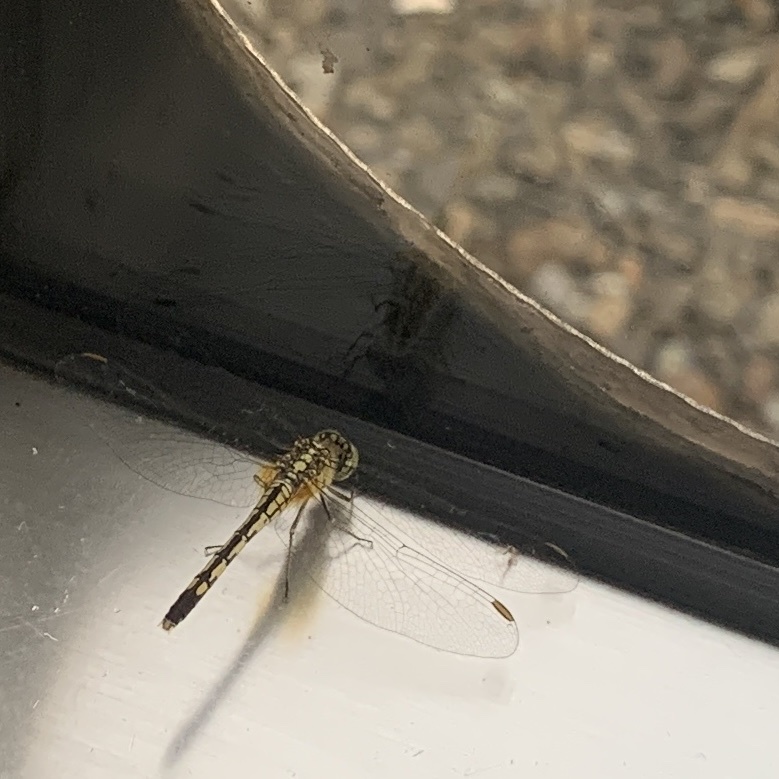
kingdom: Animalia
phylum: Arthropoda
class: Insecta
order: Odonata
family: Libellulidae
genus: Diplacodes
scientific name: Diplacodes trivialis
